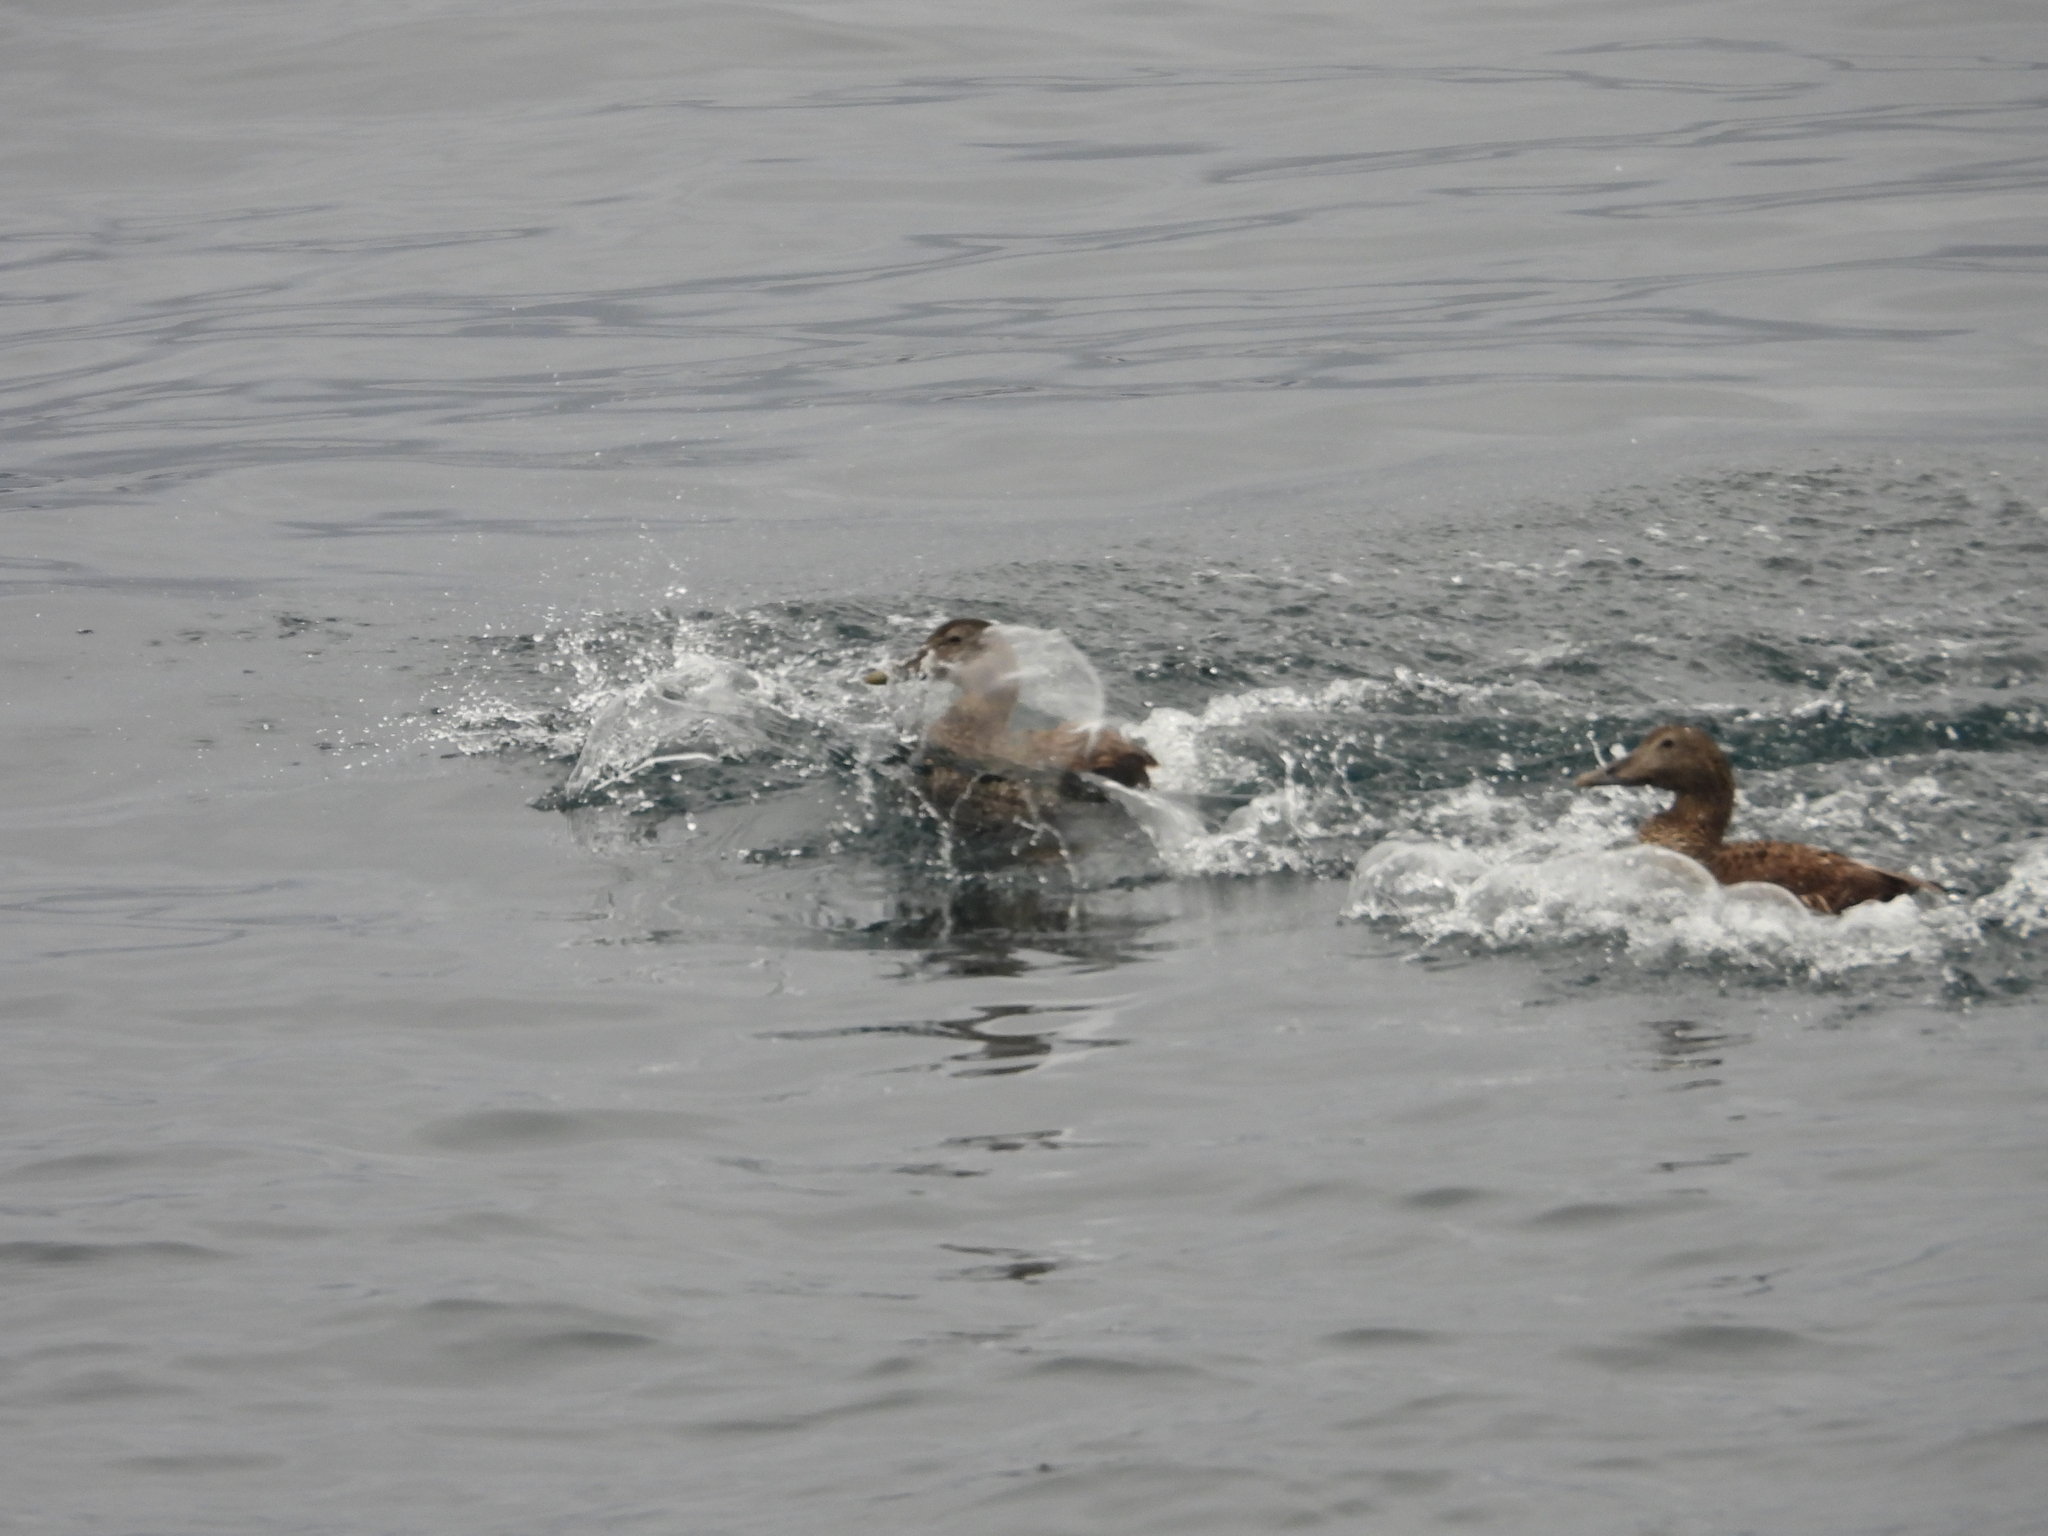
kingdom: Animalia
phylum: Chordata
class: Aves
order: Anseriformes
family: Anatidae
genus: Somateria
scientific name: Somateria mollissima
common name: Common eider
